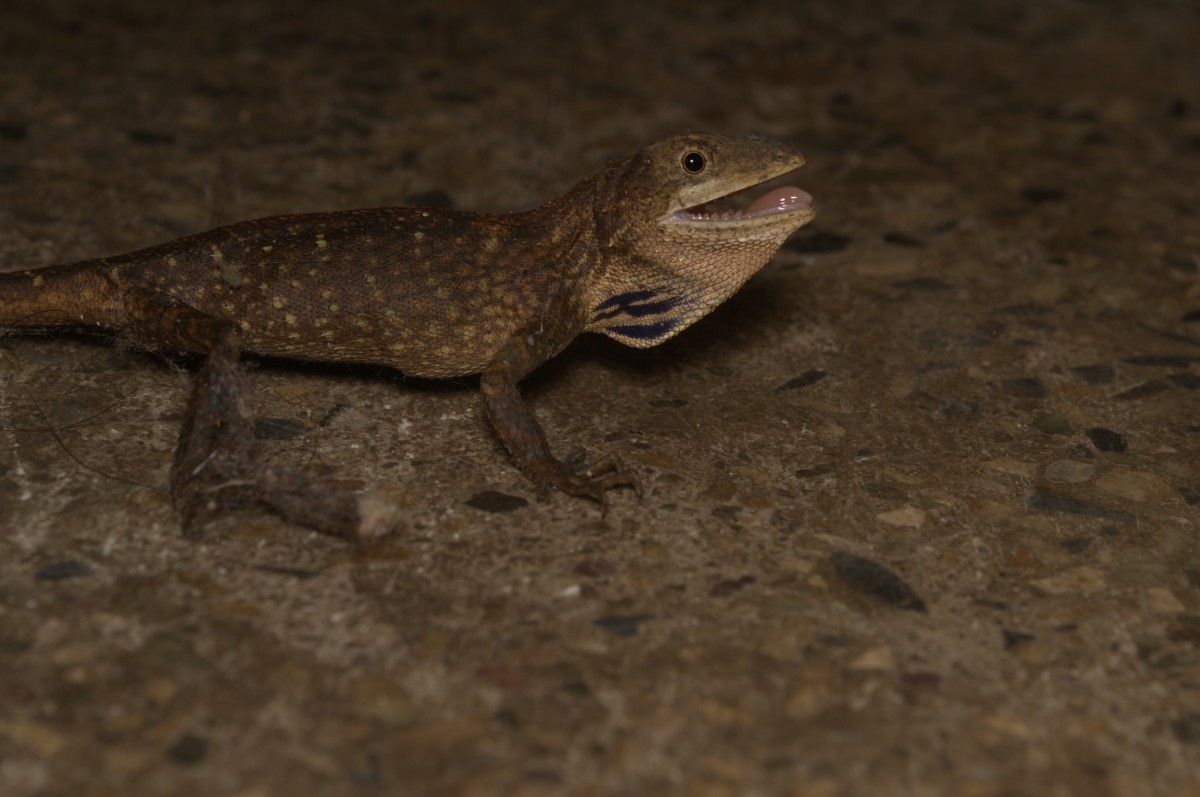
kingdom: Animalia
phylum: Chordata
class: Squamata
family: Agamidae
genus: Ptyctolaemus
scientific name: Ptyctolaemus gularis
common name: Green fan-throated lizard
